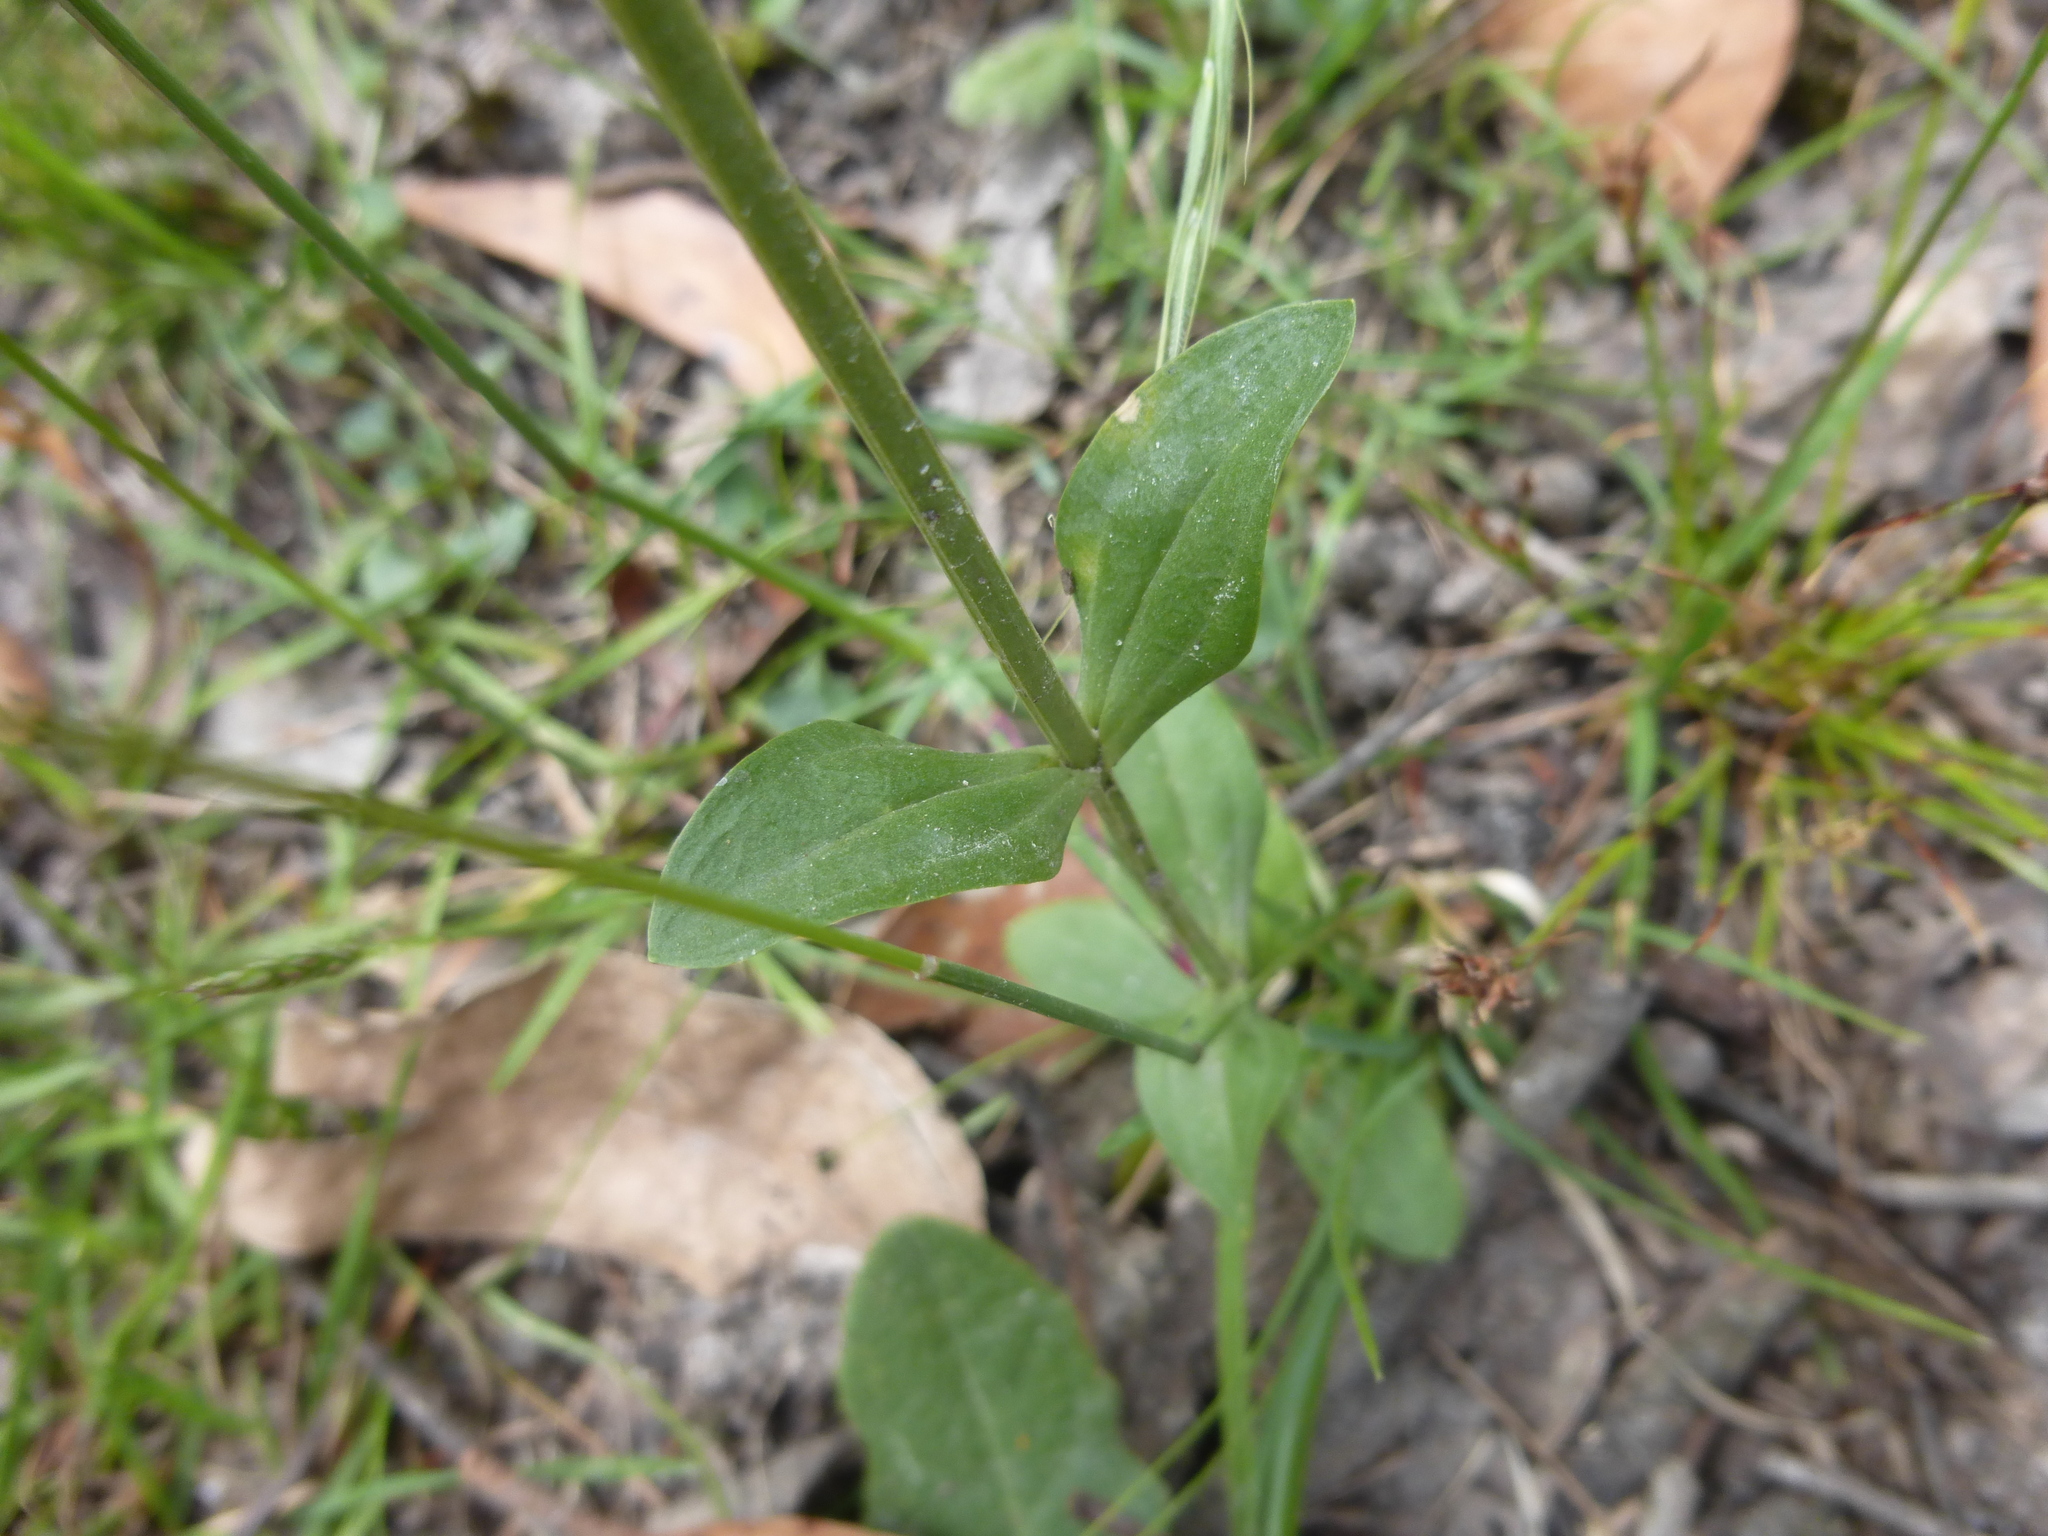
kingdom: Plantae
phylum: Tracheophyta
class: Magnoliopsida
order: Gentianales
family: Gentianaceae
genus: Centaurium
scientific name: Centaurium erythraea
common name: Common centaury
